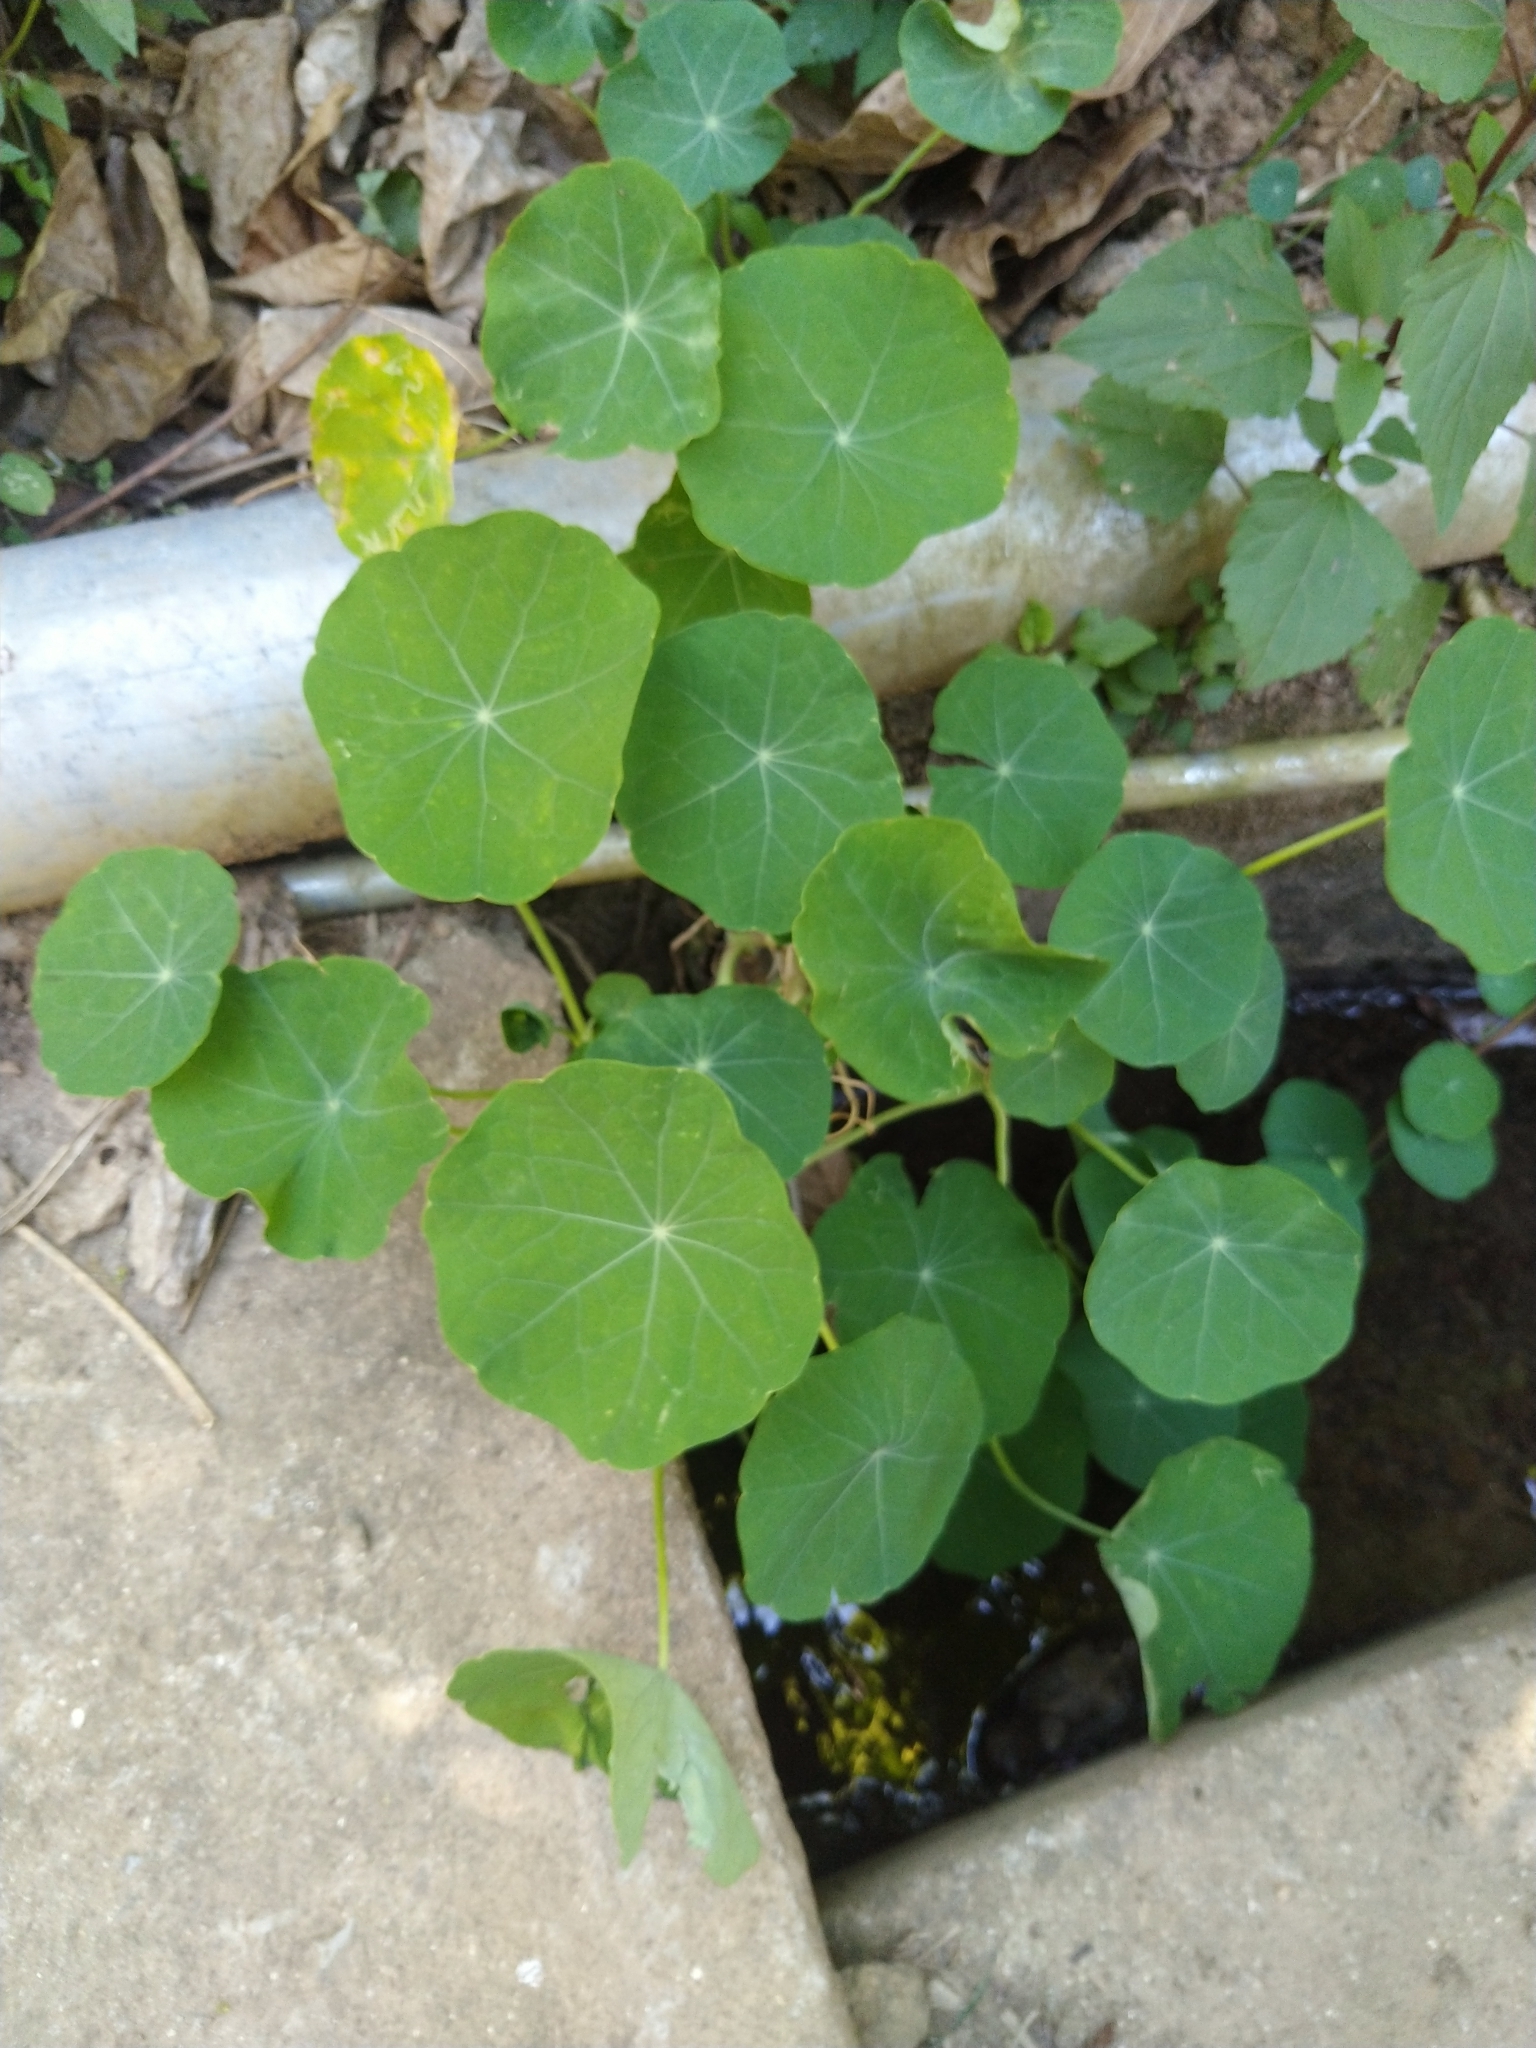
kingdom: Plantae
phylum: Tracheophyta
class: Magnoliopsida
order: Brassicales
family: Tropaeolaceae
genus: Tropaeolum
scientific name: Tropaeolum majus
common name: Nasturtium
